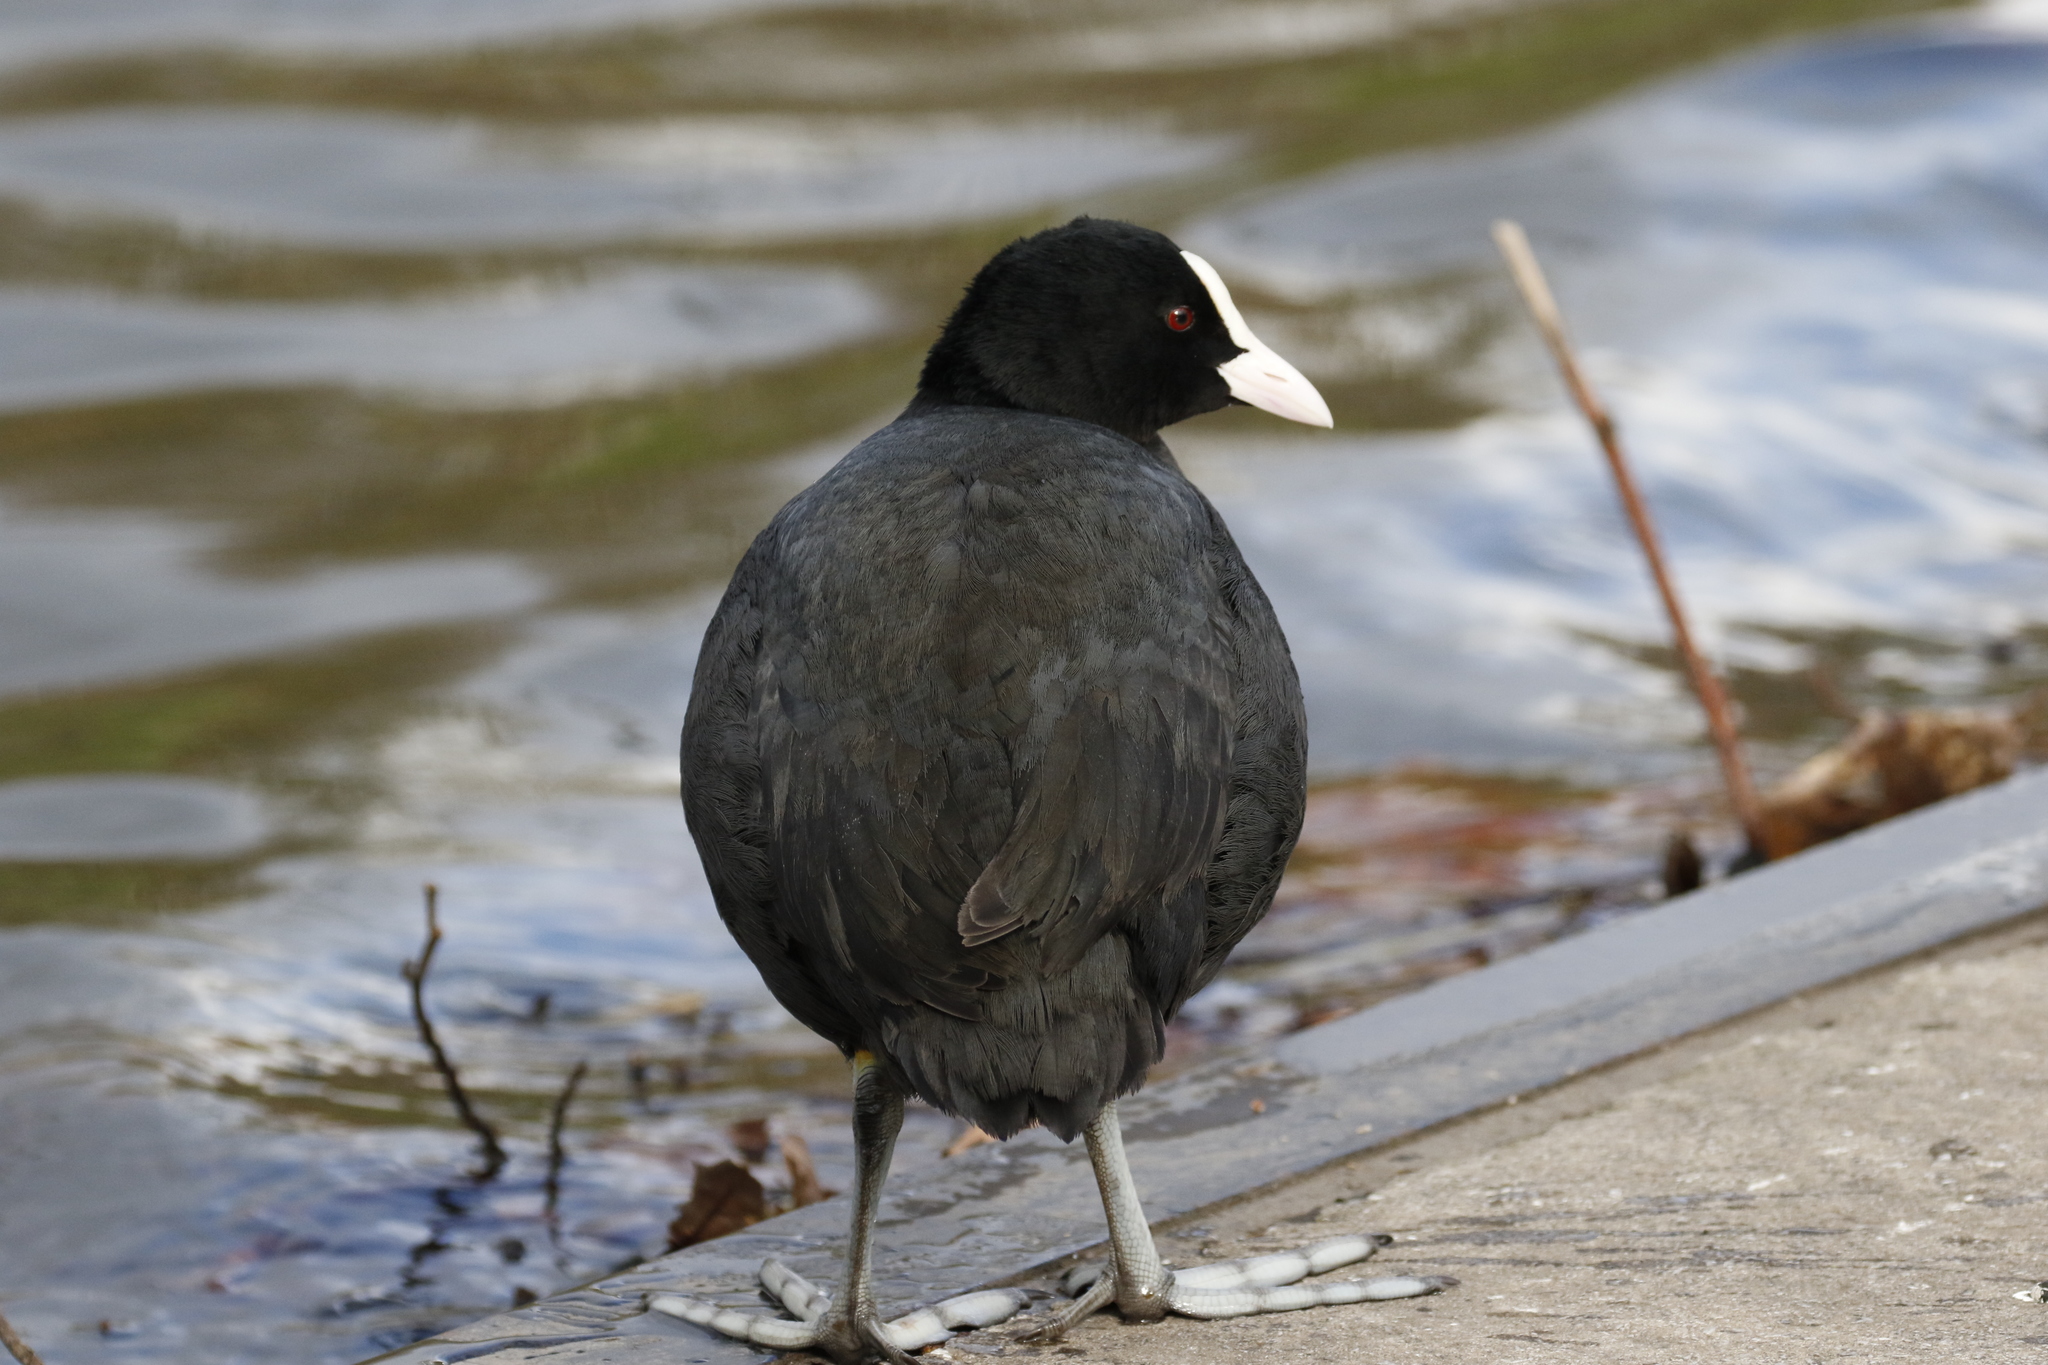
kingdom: Animalia
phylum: Chordata
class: Aves
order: Gruiformes
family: Rallidae
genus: Fulica
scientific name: Fulica atra
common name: Eurasian coot
